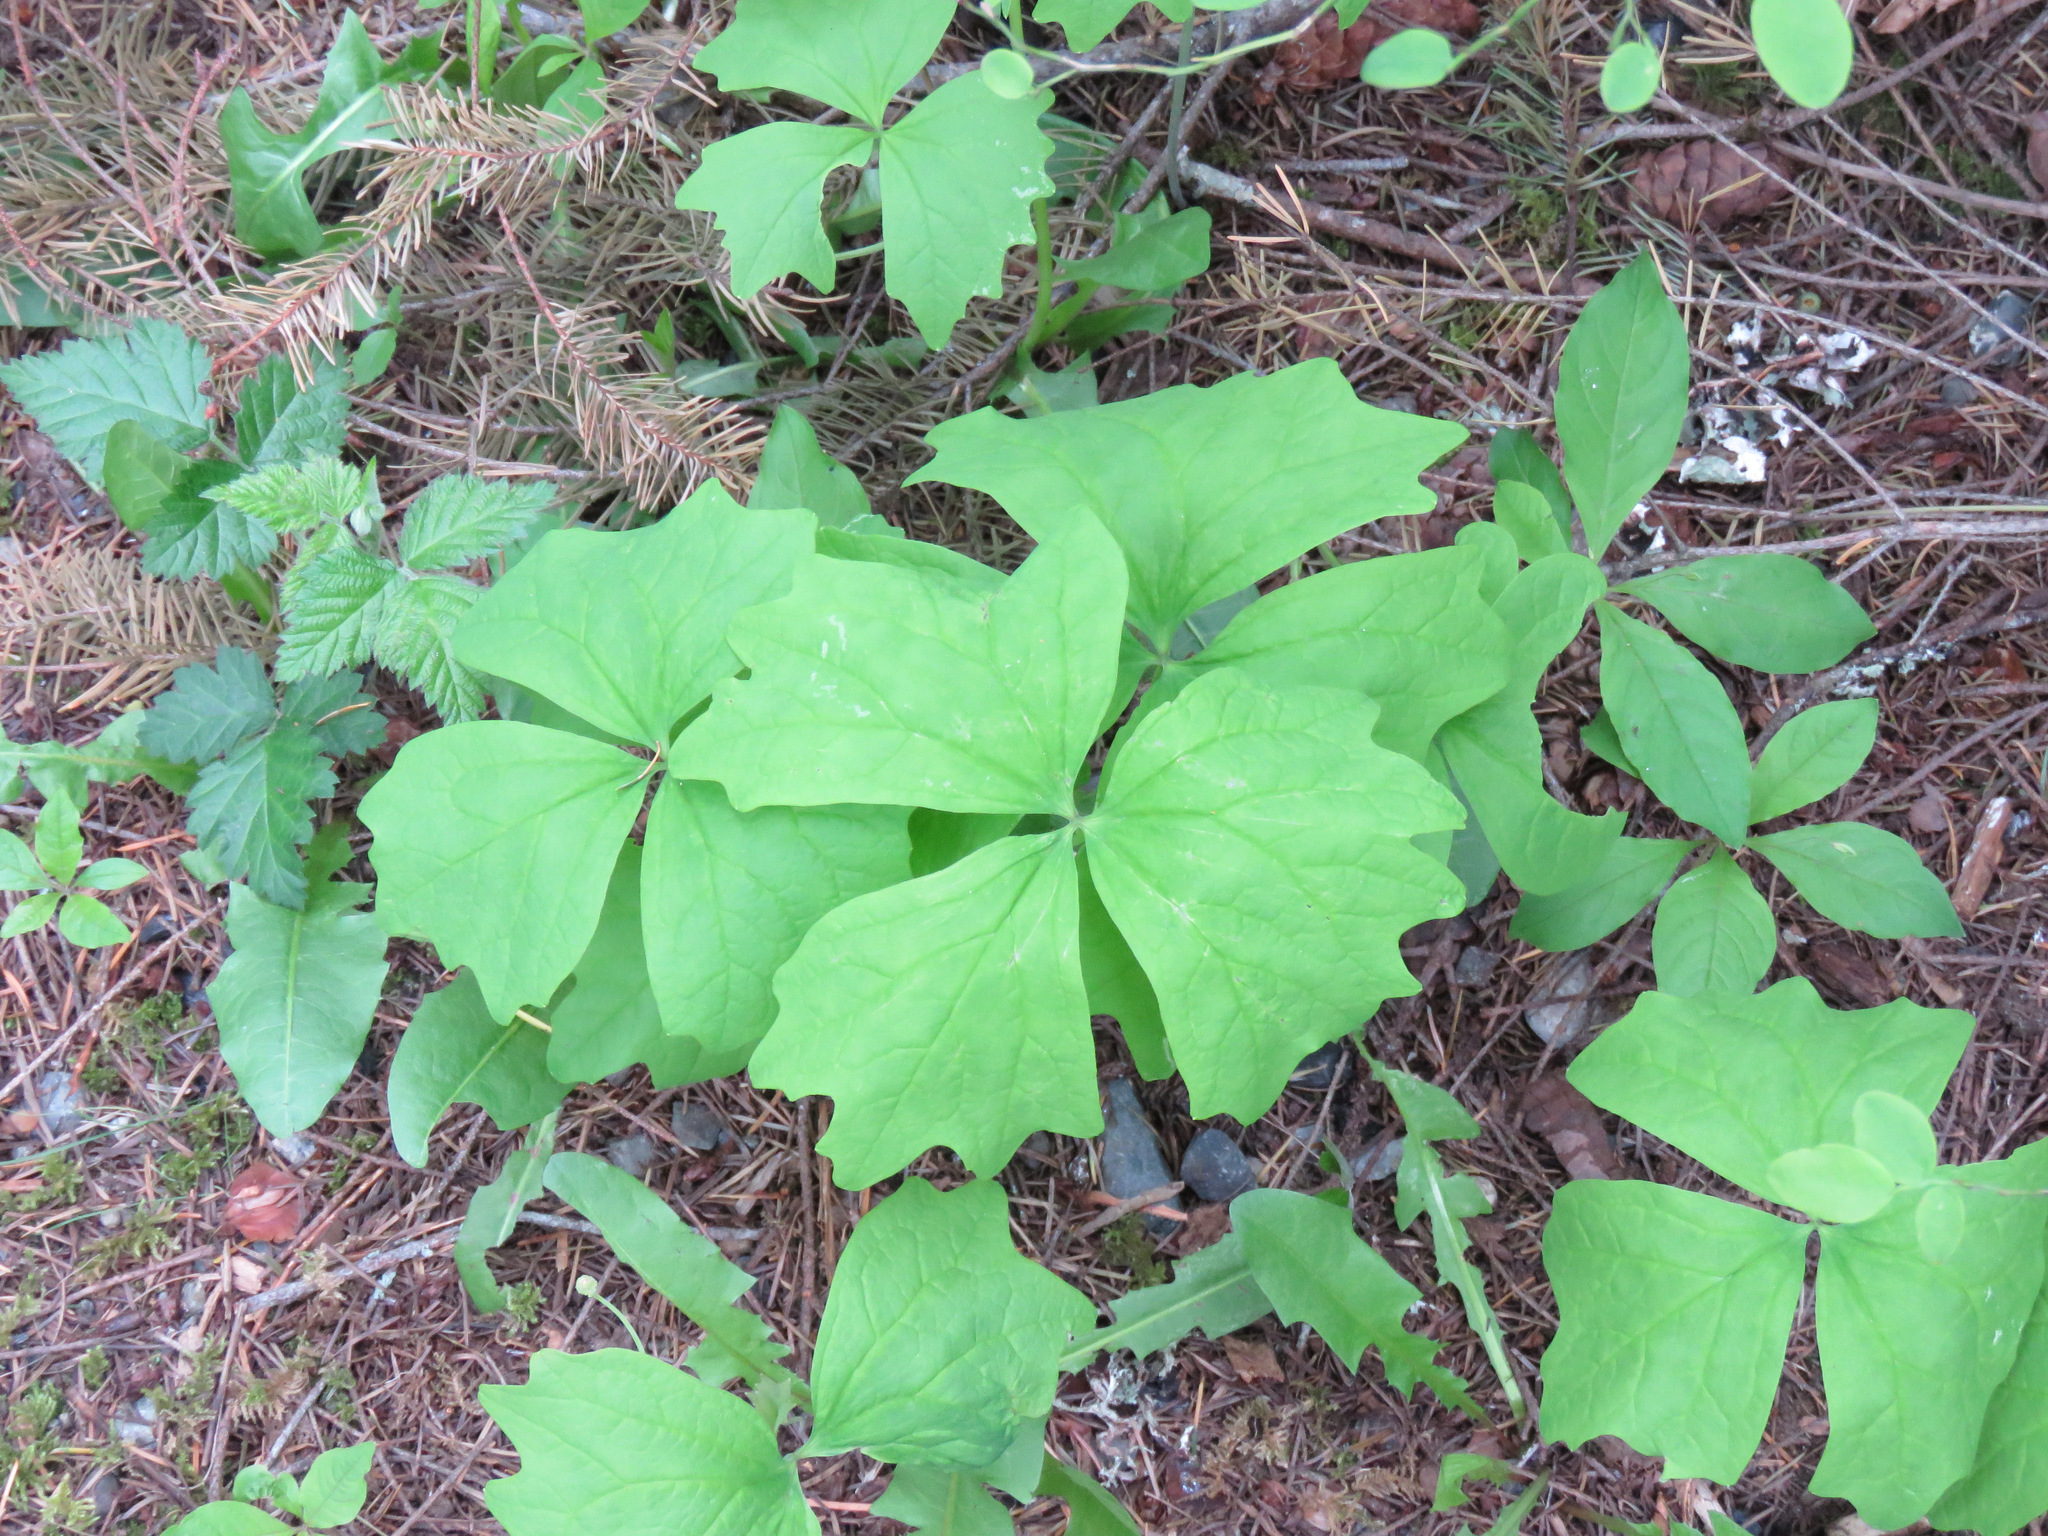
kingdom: Plantae
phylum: Tracheophyta
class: Magnoliopsida
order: Ranunculales
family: Berberidaceae
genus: Achlys
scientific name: Achlys triphylla
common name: Vanilla-leaf
